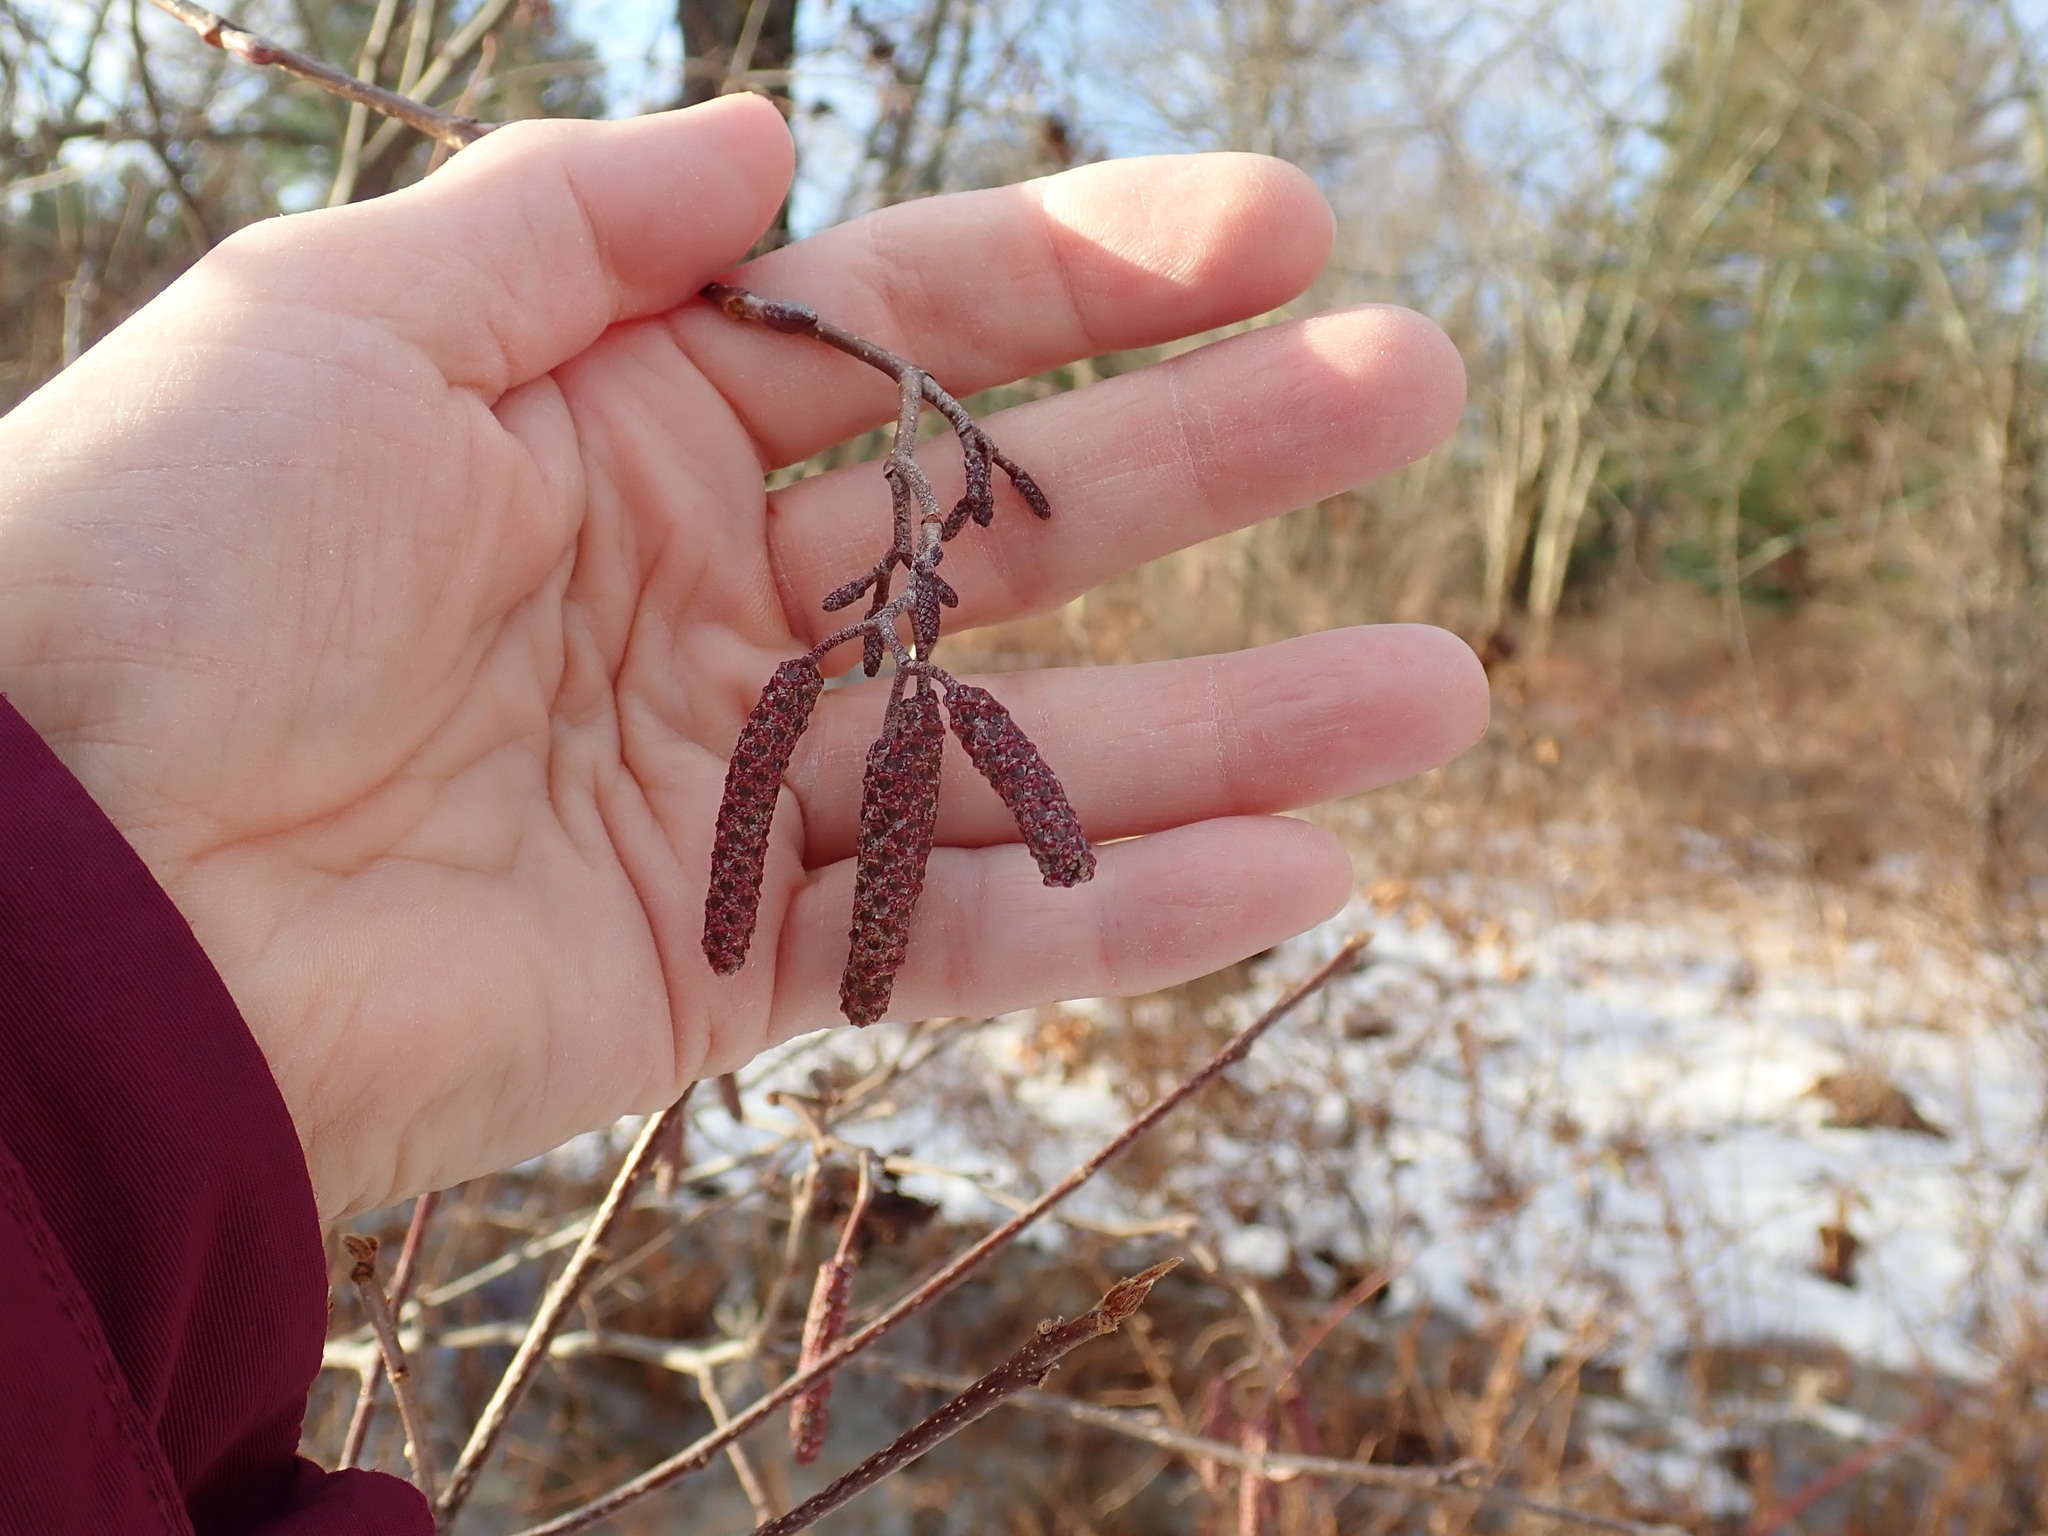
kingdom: Plantae
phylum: Tracheophyta
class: Magnoliopsida
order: Fagales
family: Betulaceae
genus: Alnus
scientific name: Alnus incana
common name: Grey alder
